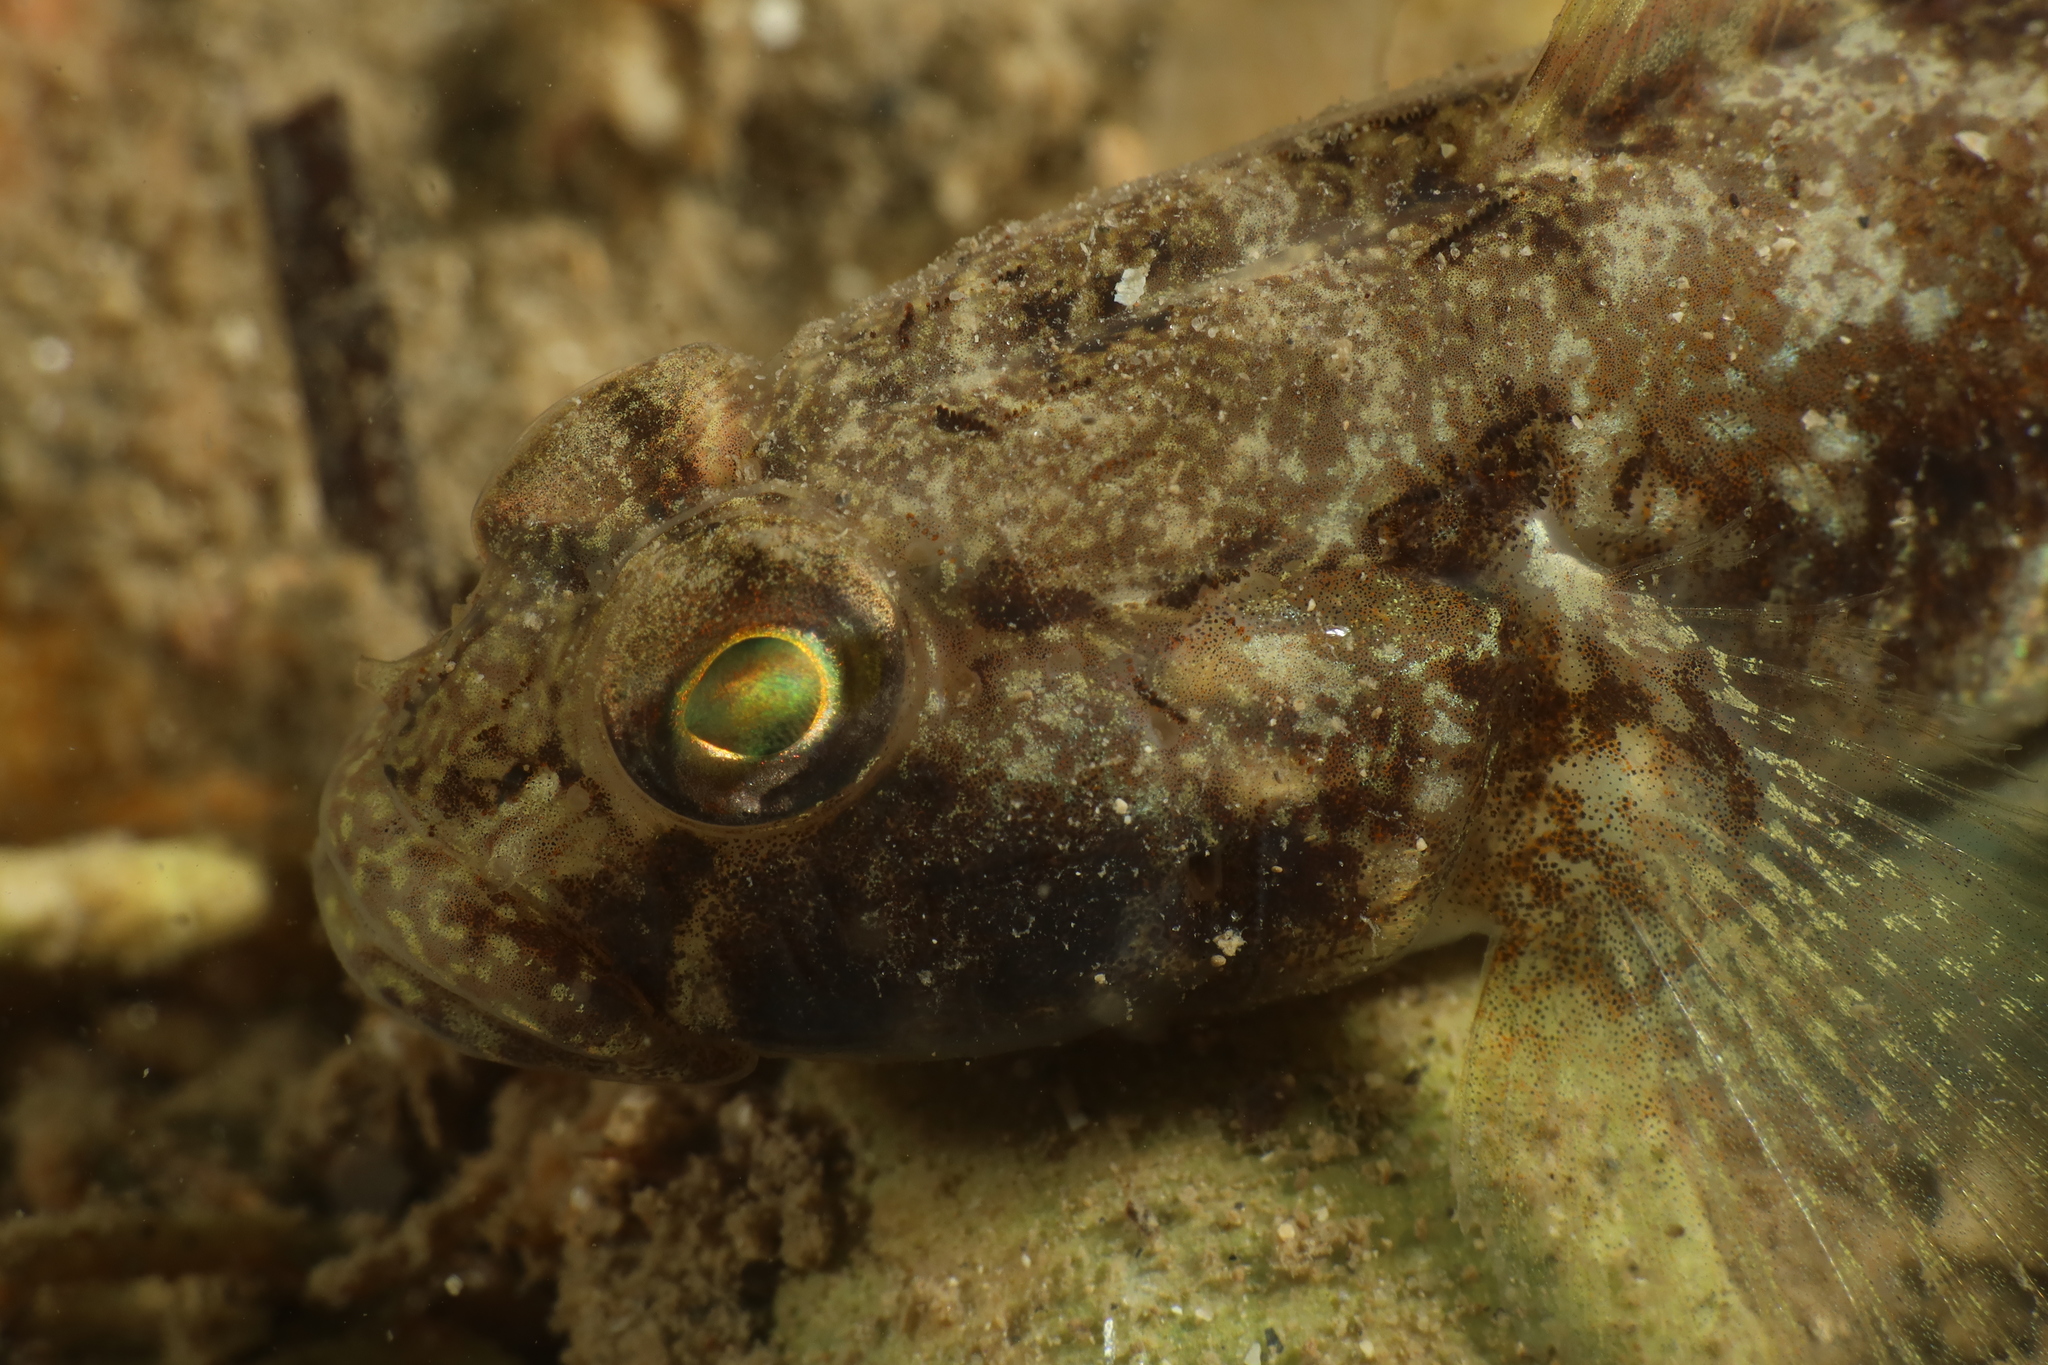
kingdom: Animalia
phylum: Chordata
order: Perciformes
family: Gobiidae
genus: Gobius
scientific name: Gobius niger
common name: Black goby
